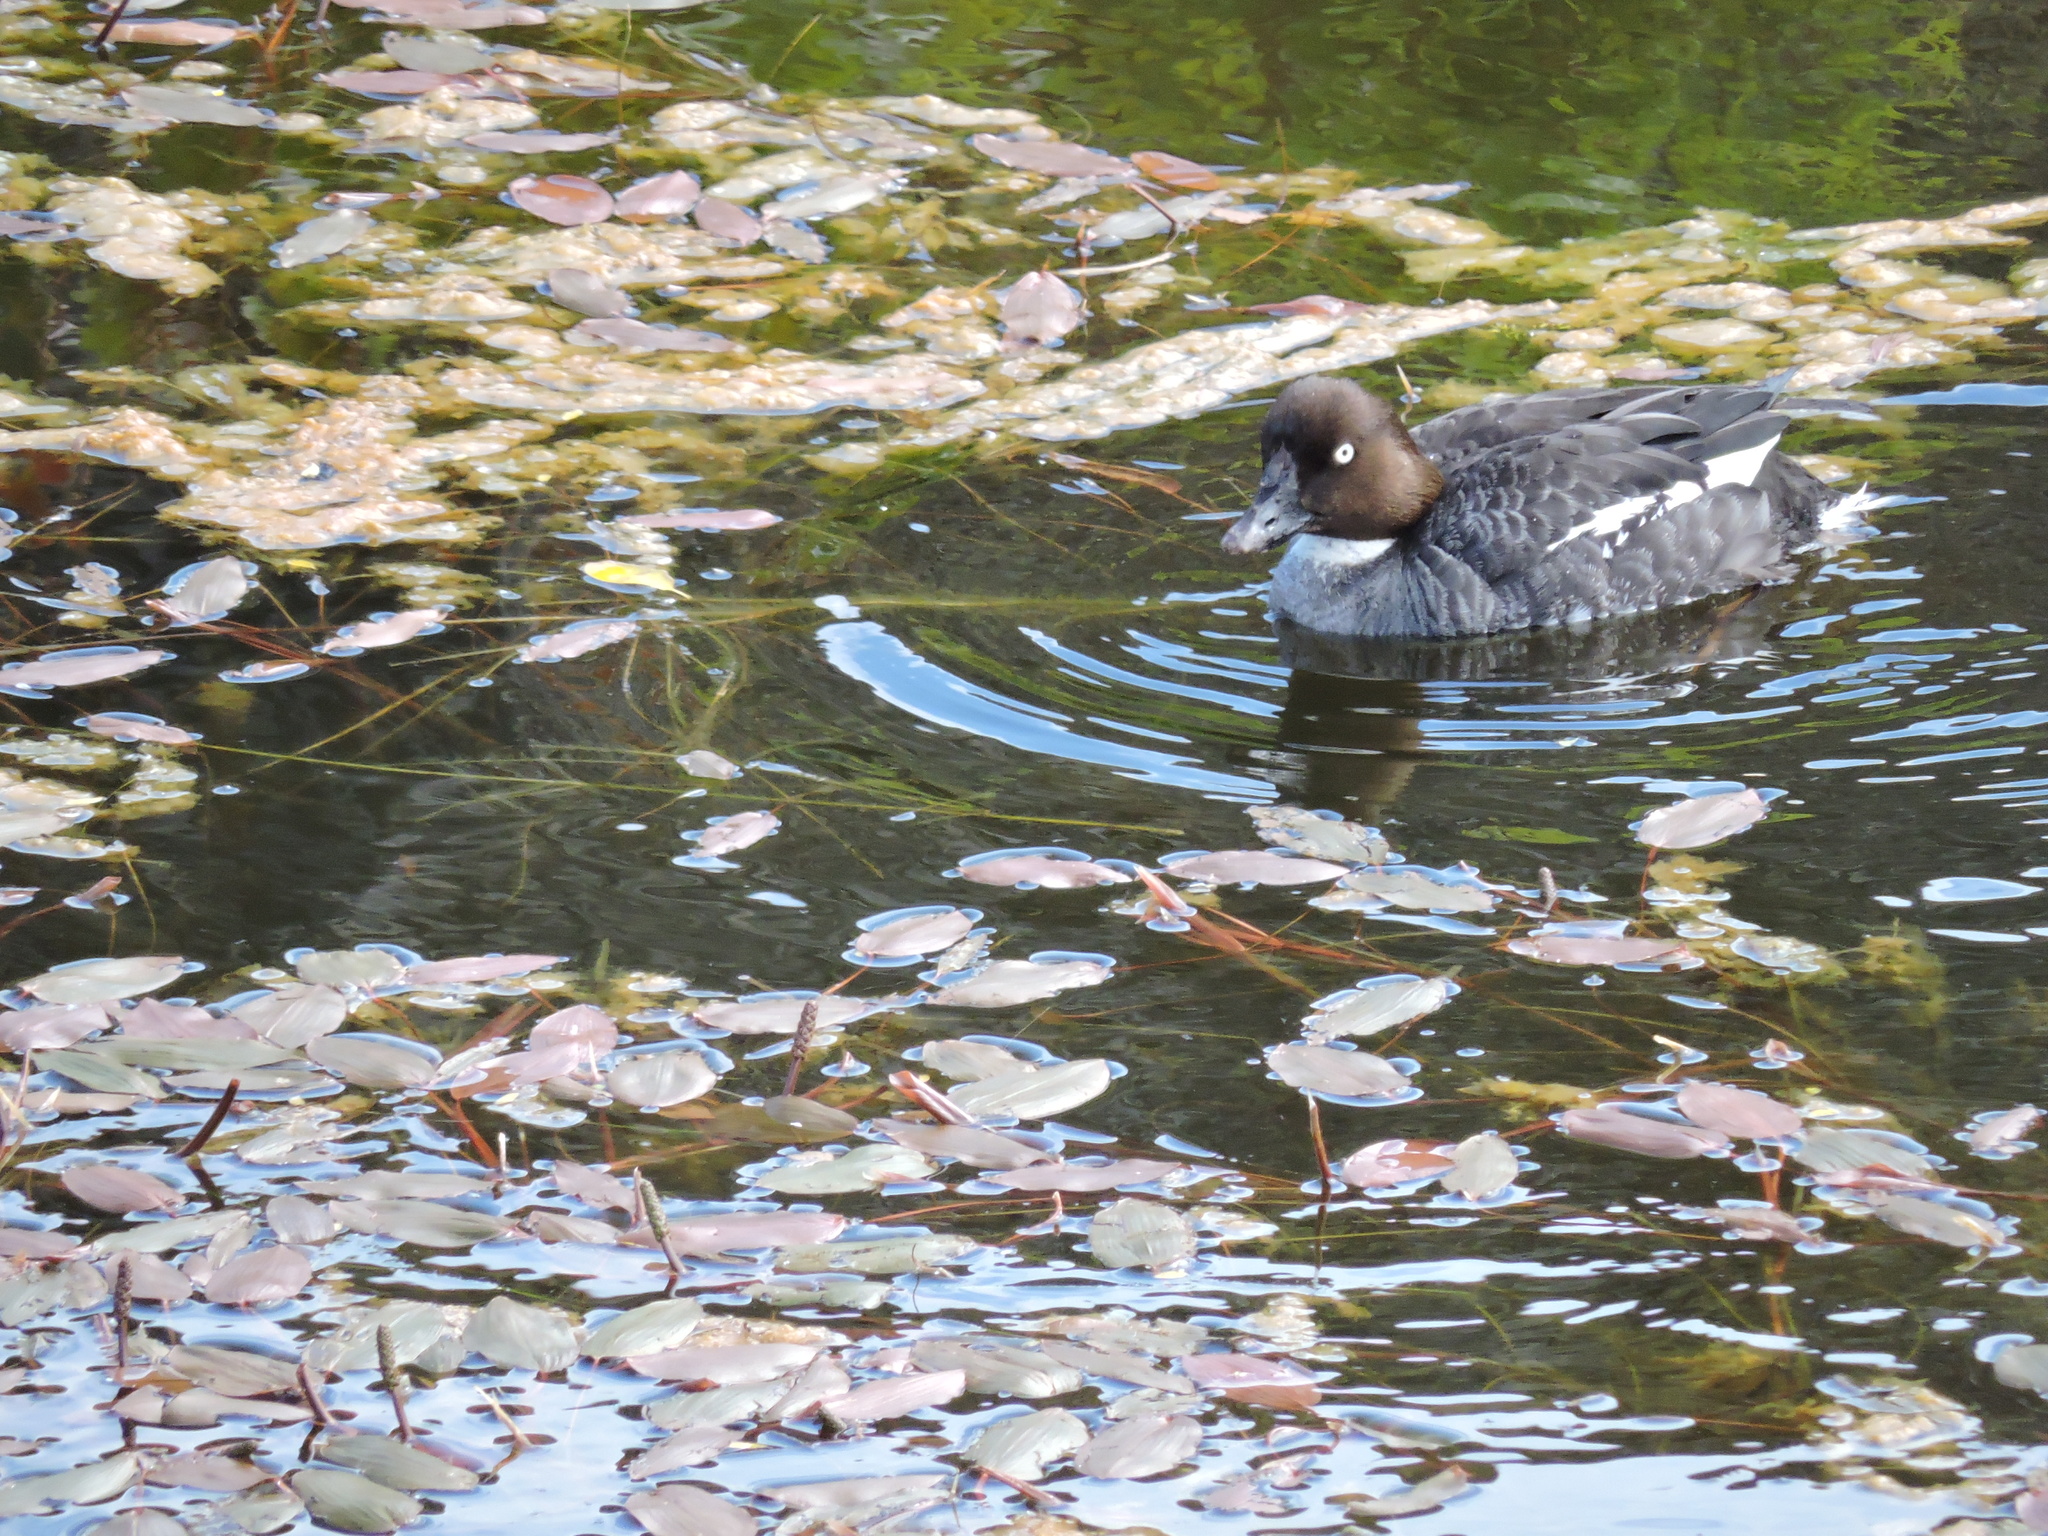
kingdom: Animalia
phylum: Chordata
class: Aves
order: Anseriformes
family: Anatidae
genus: Bucephala
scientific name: Bucephala clangula
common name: Common goldeneye
